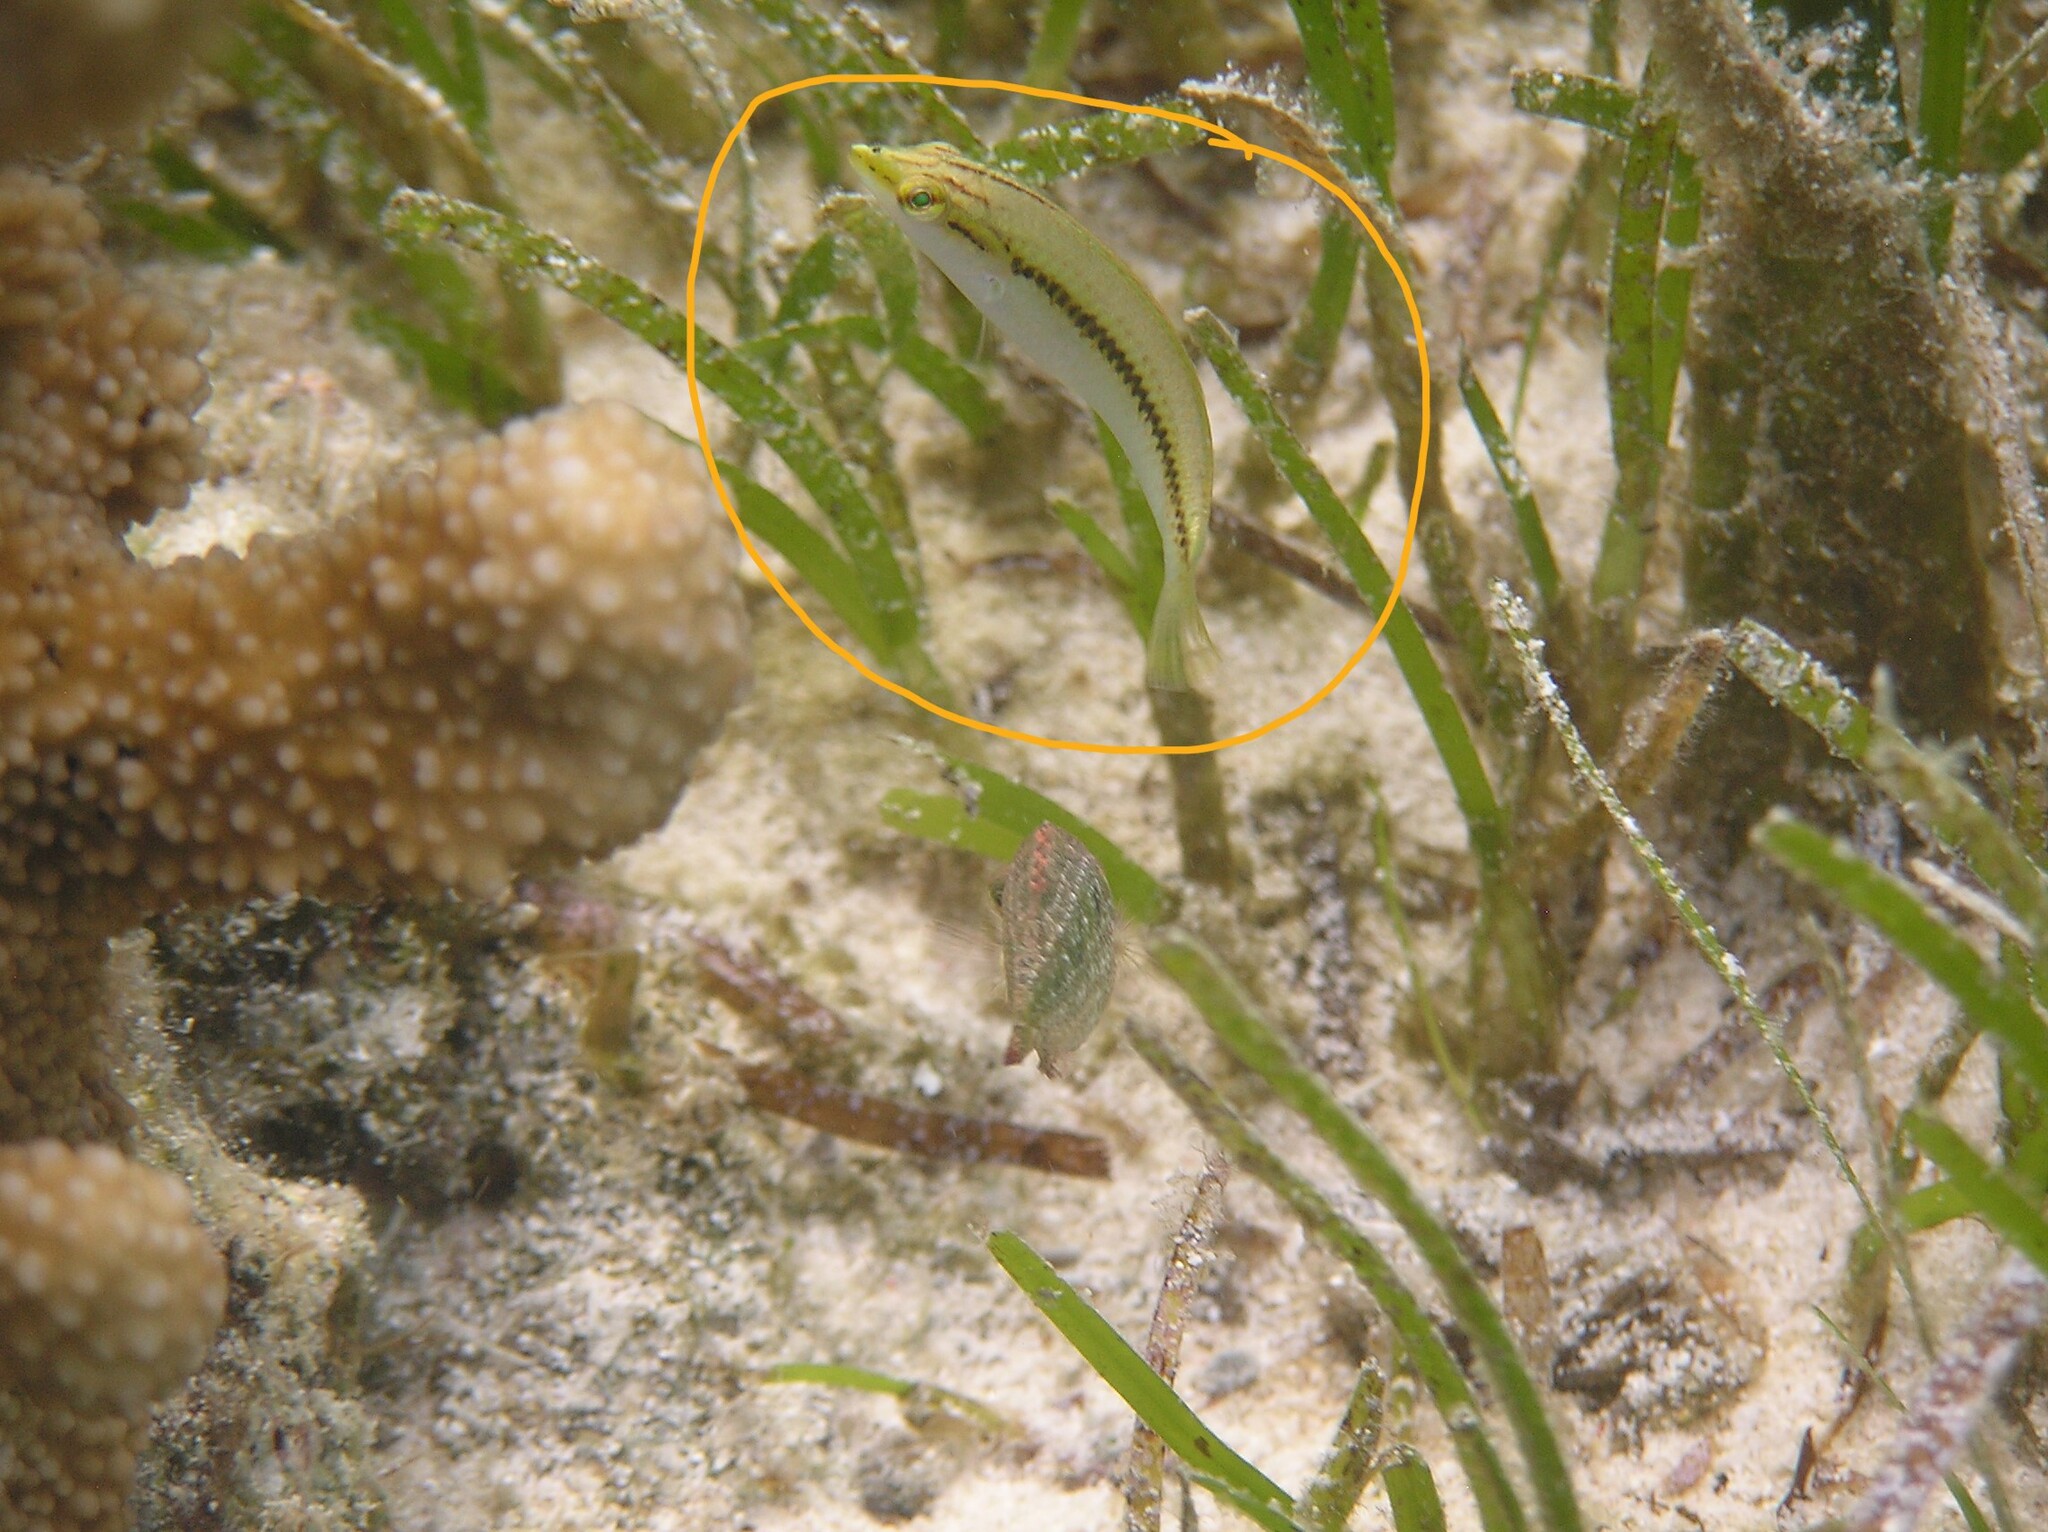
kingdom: Animalia
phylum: Chordata
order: Perciformes
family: Labridae
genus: Halichoeres
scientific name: Halichoeres scapularis
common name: Brownbanded wrasse
